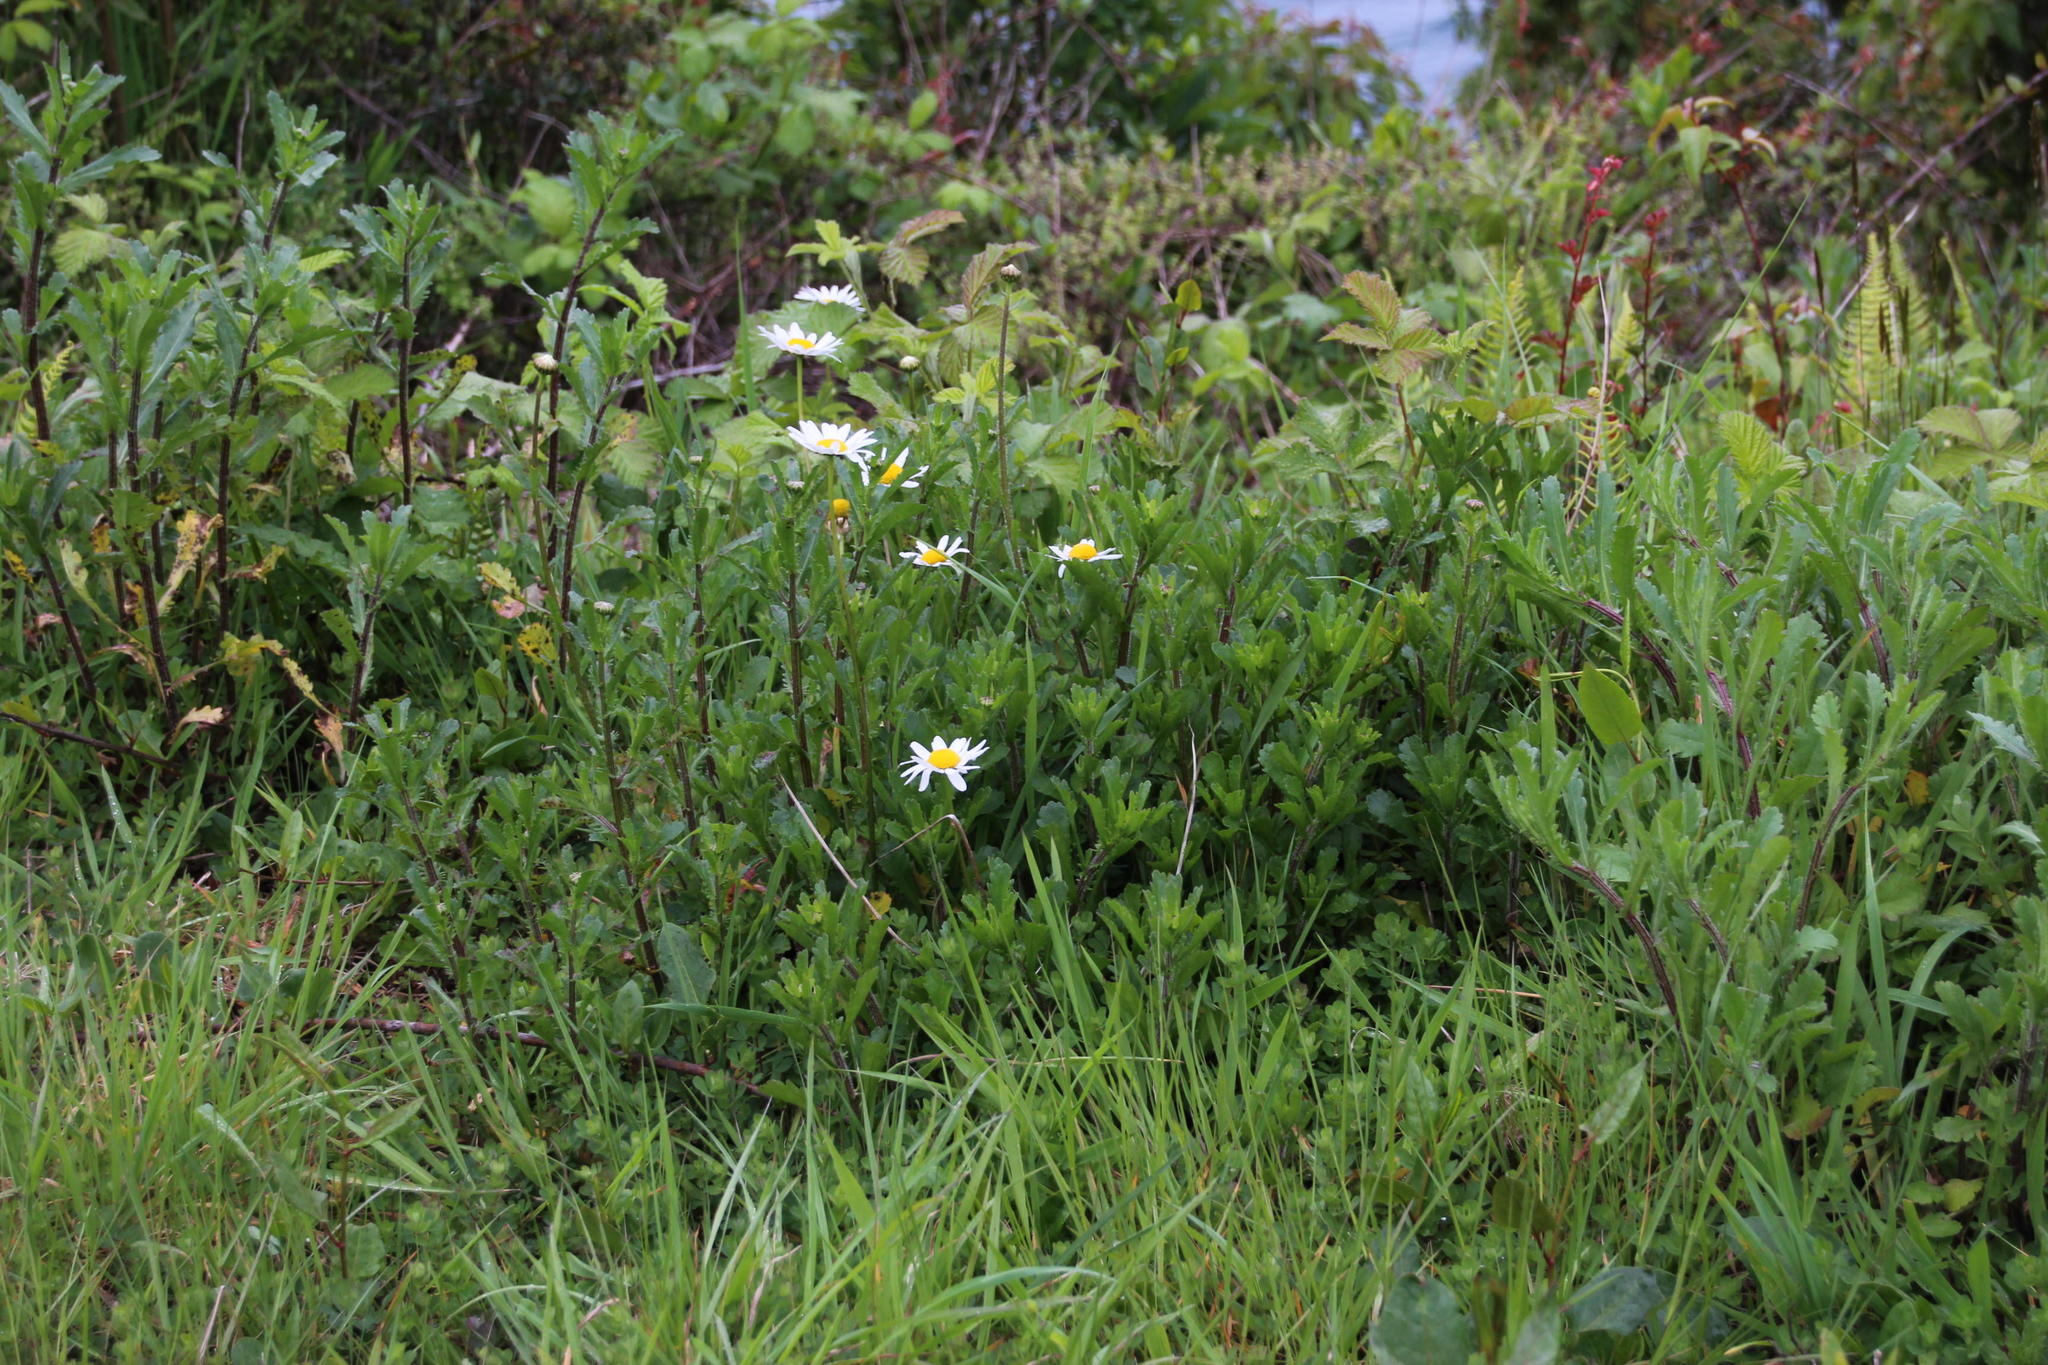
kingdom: Plantae
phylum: Tracheophyta
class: Magnoliopsida
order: Asterales
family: Asteraceae
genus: Leucanthemum
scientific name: Leucanthemum vulgare
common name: Oxeye daisy
